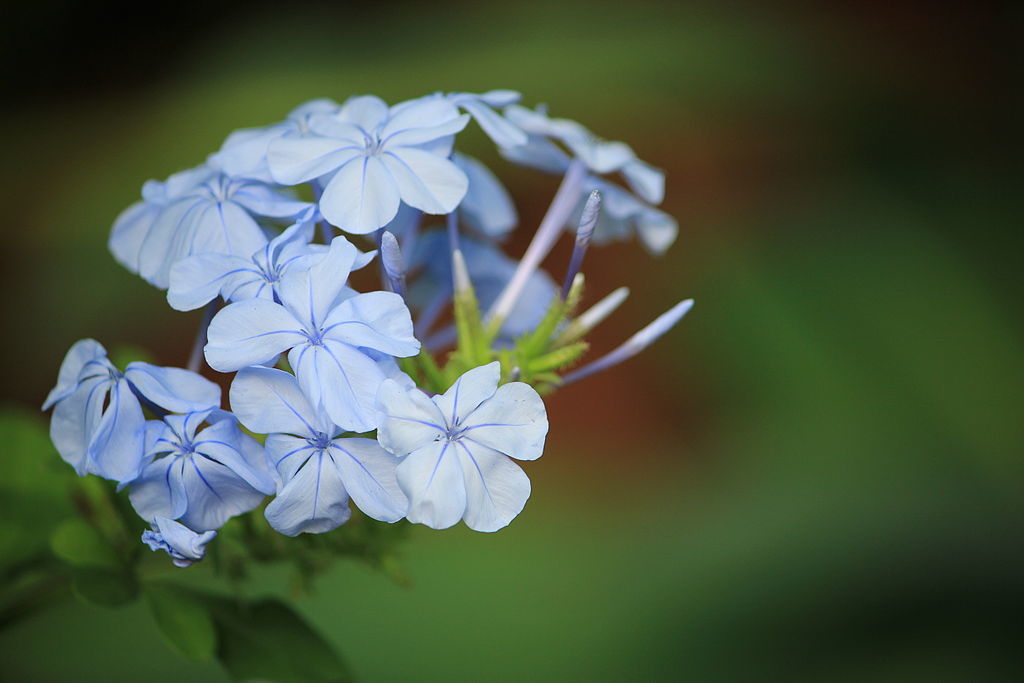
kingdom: Plantae
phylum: Tracheophyta
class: Magnoliopsida
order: Caryophyllales
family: Plumbaginaceae
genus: Plumbago
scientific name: Plumbago auriculata
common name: Cape leadwort
